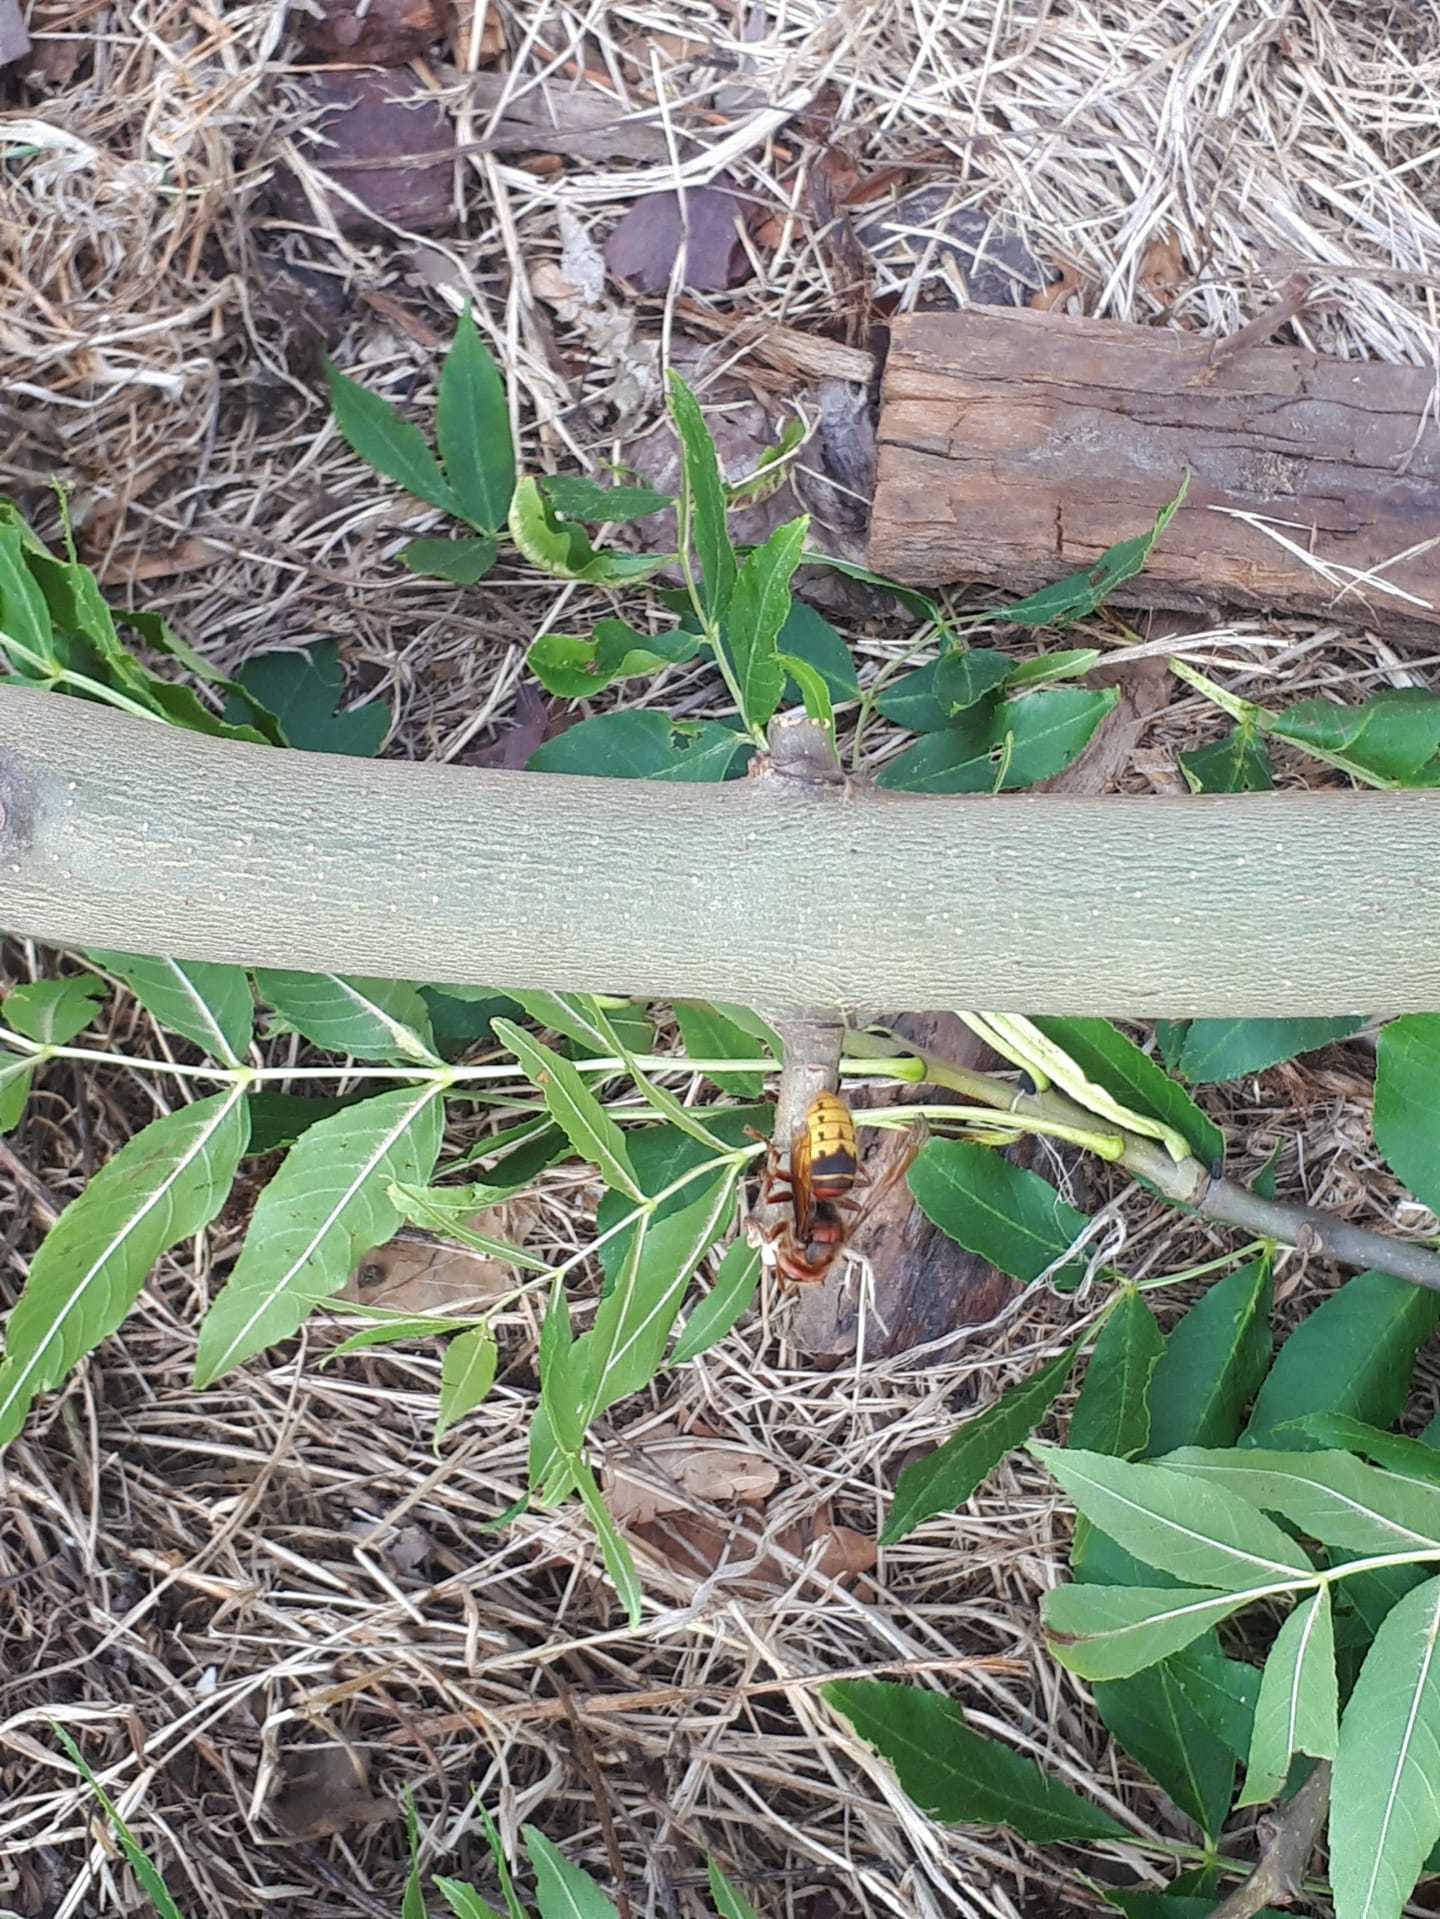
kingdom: Animalia
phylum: Arthropoda
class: Insecta
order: Hymenoptera
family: Vespidae
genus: Vespa
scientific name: Vespa crabro
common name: Hornet
